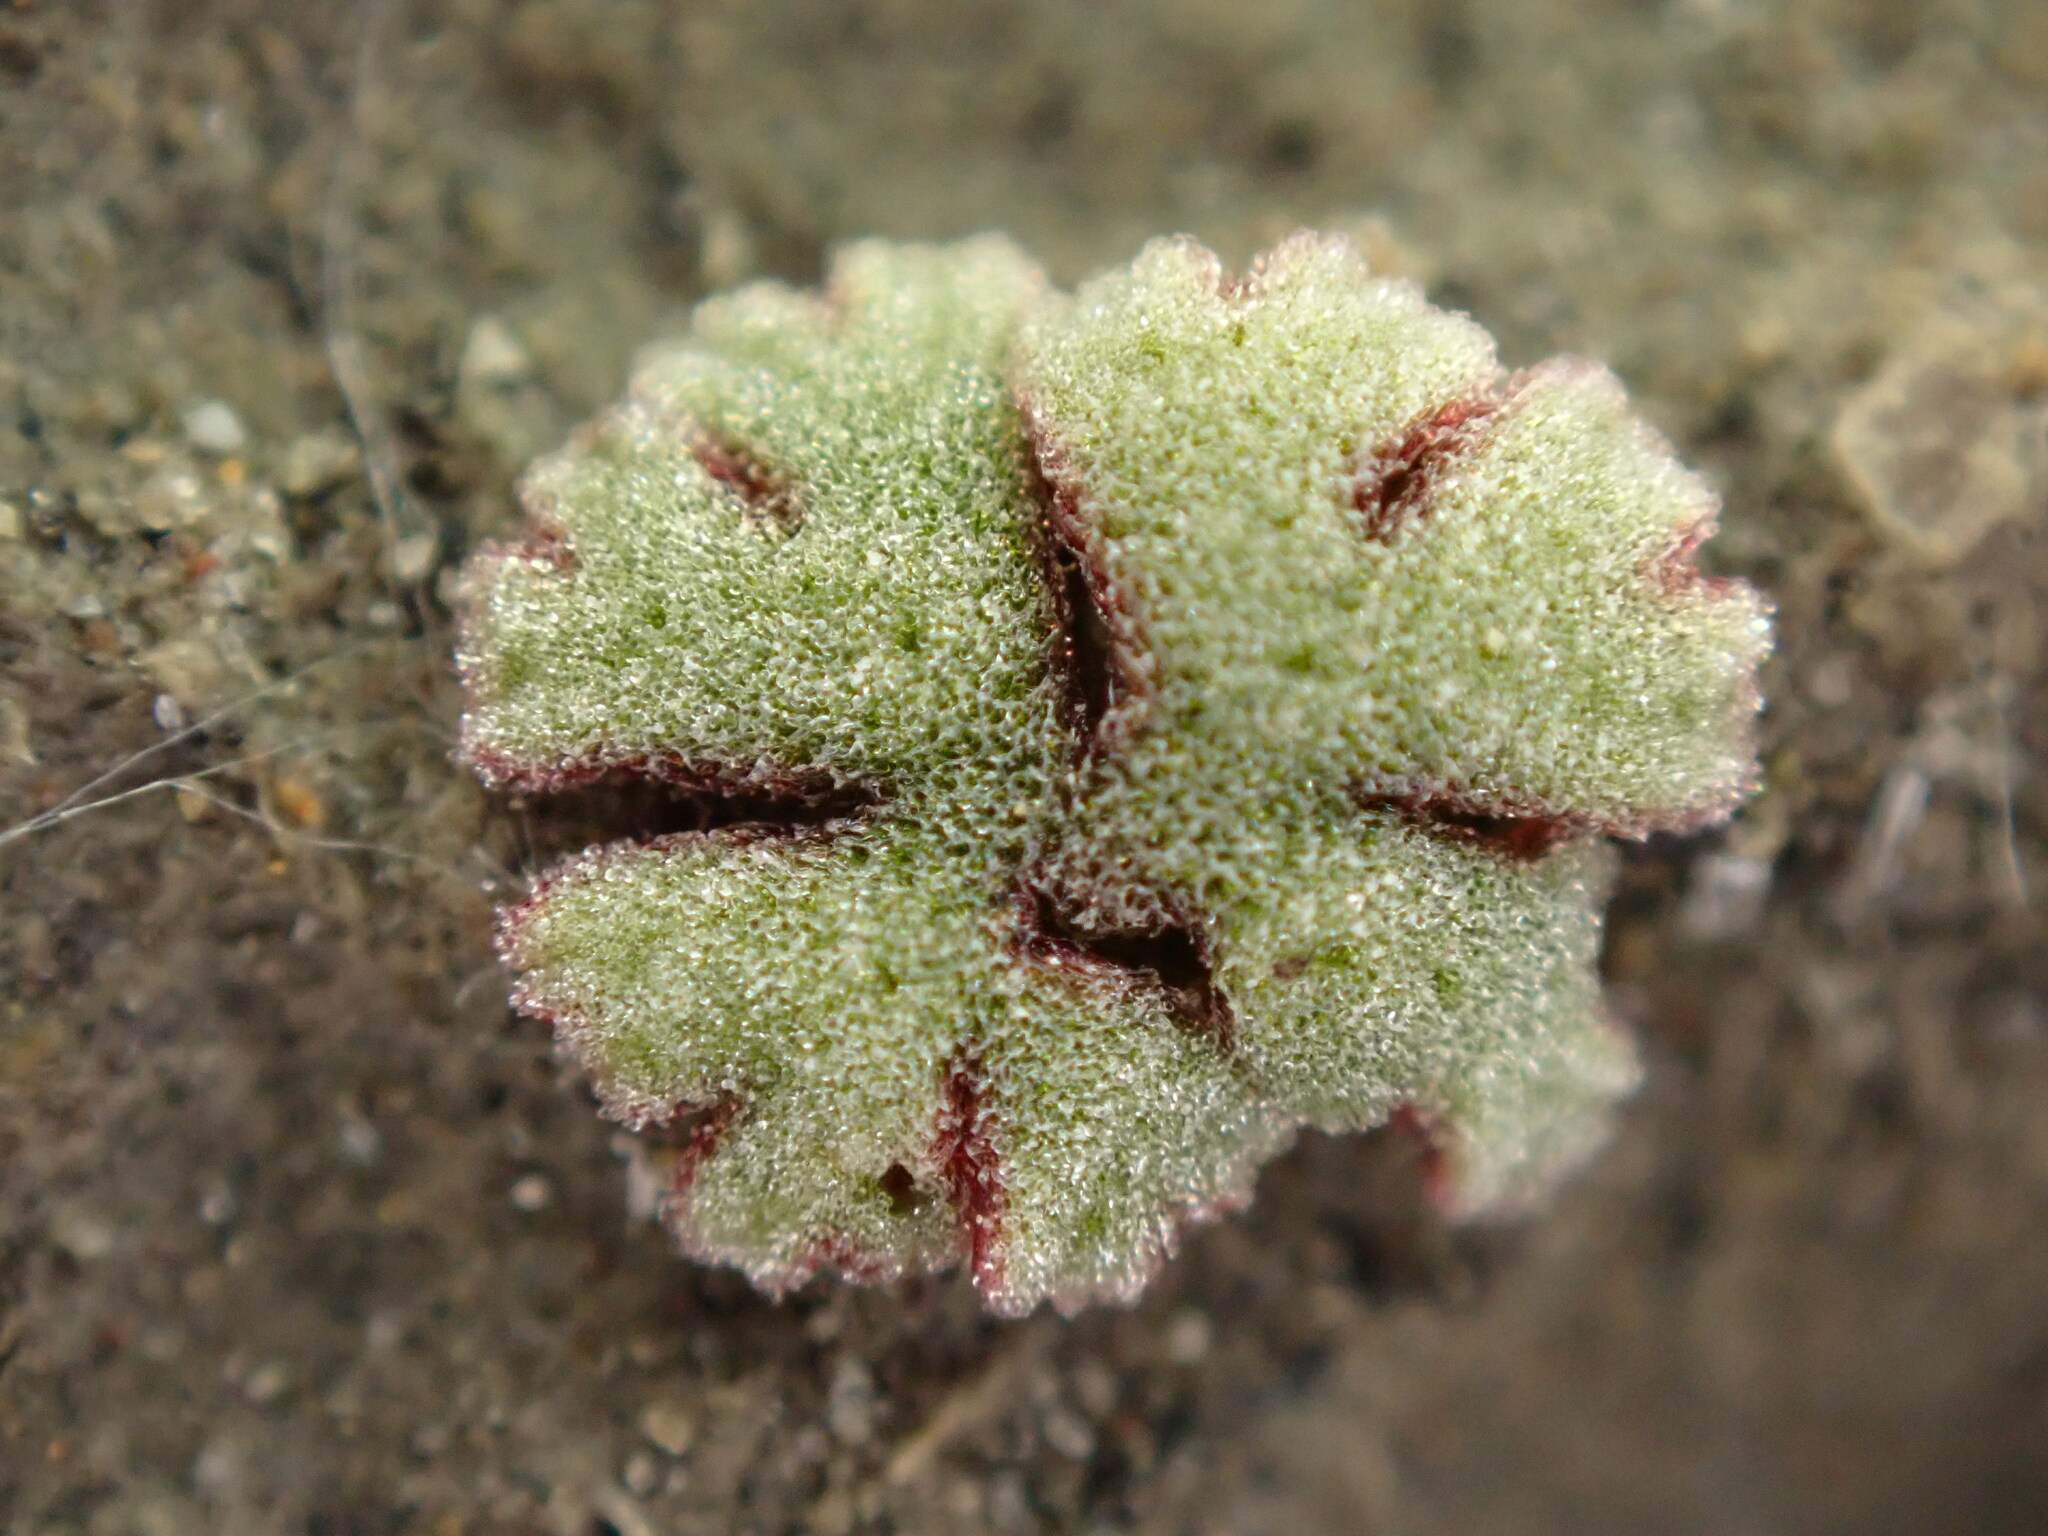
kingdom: Plantae
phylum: Marchantiophyta
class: Marchantiopsida
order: Marchantiales
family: Ricciaceae
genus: Riccia
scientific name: Riccia frostii
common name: Frost s crystalwort
